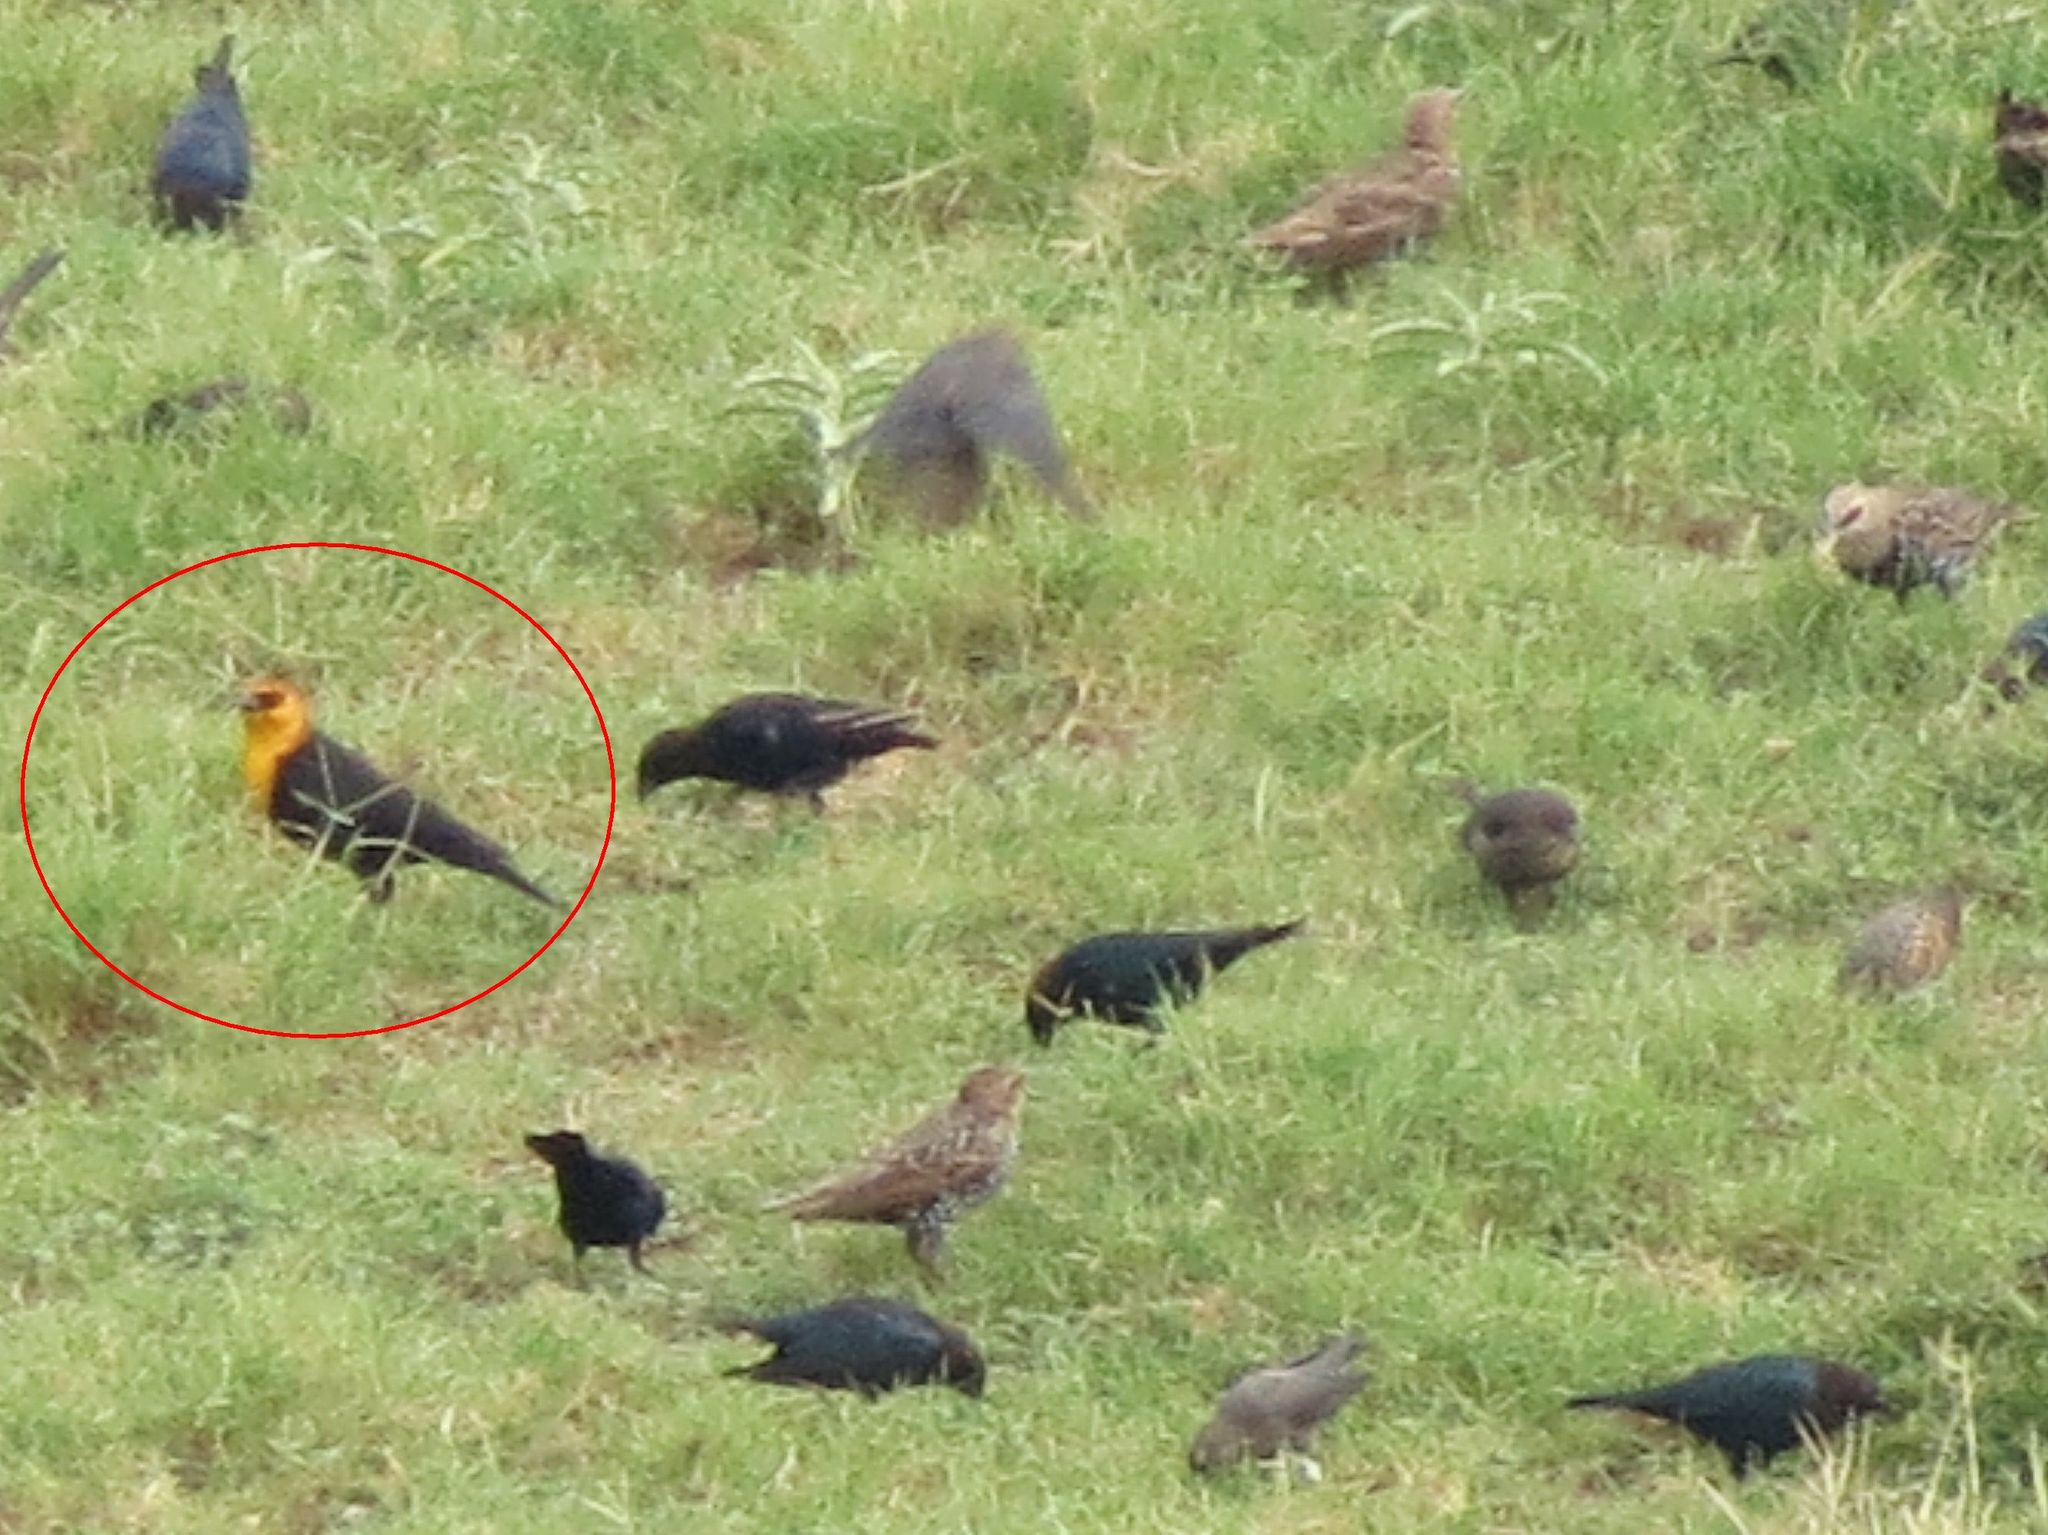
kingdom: Animalia
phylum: Chordata
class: Aves
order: Passeriformes
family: Icteridae
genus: Xanthocephalus
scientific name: Xanthocephalus xanthocephalus
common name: Yellow-headed blackbird
